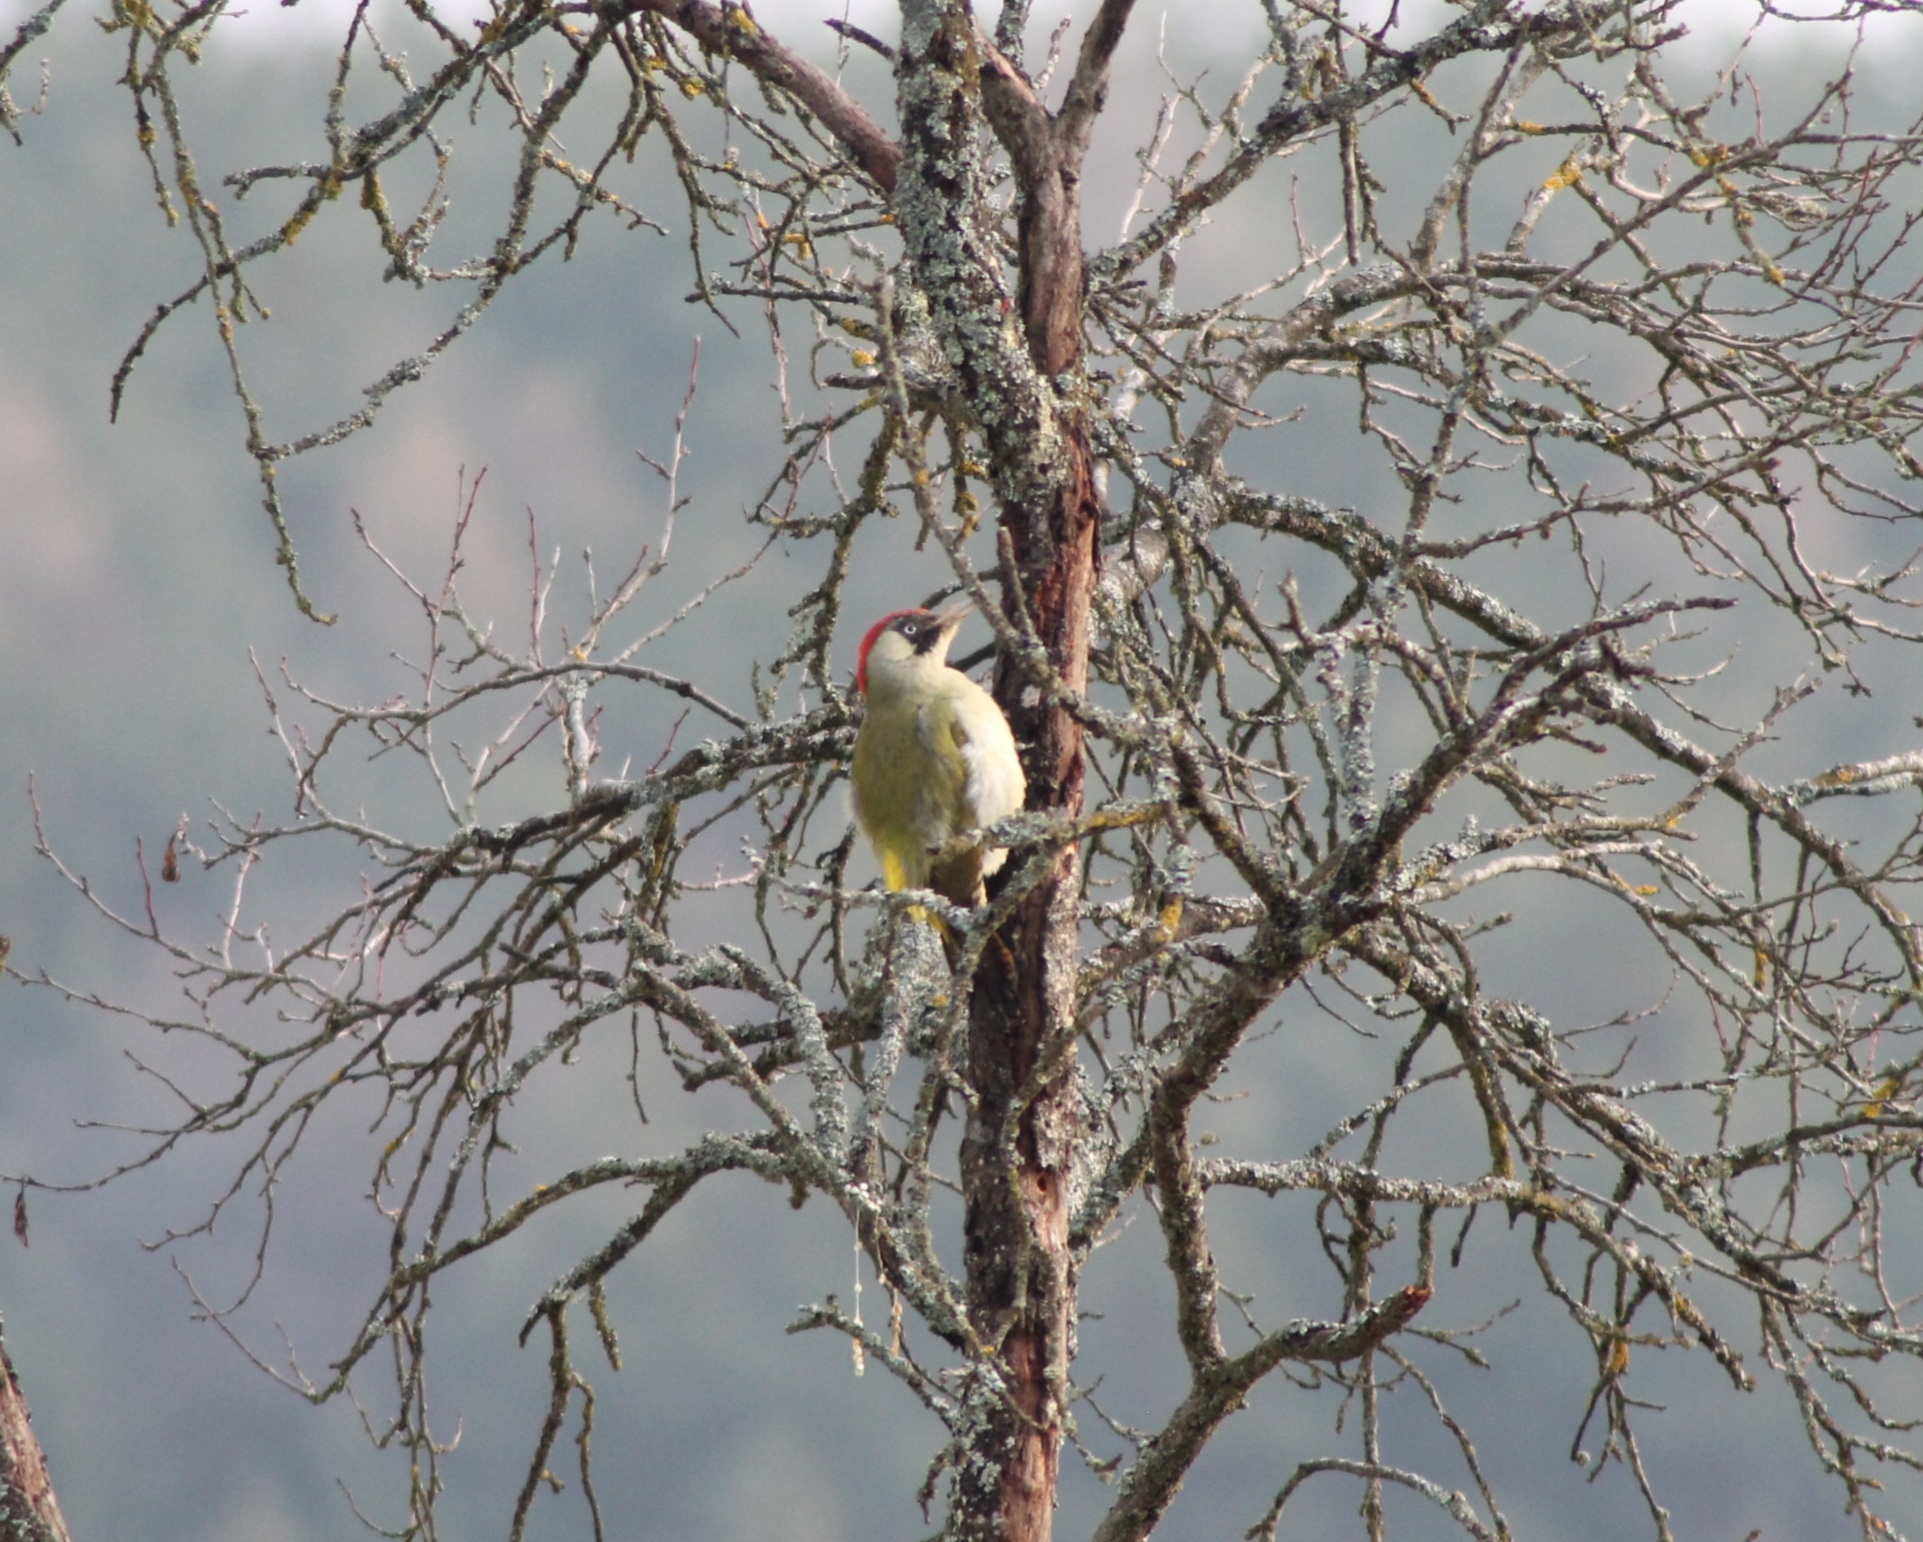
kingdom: Animalia
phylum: Chordata
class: Aves
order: Piciformes
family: Picidae
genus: Picus
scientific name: Picus viridis
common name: European green woodpecker
